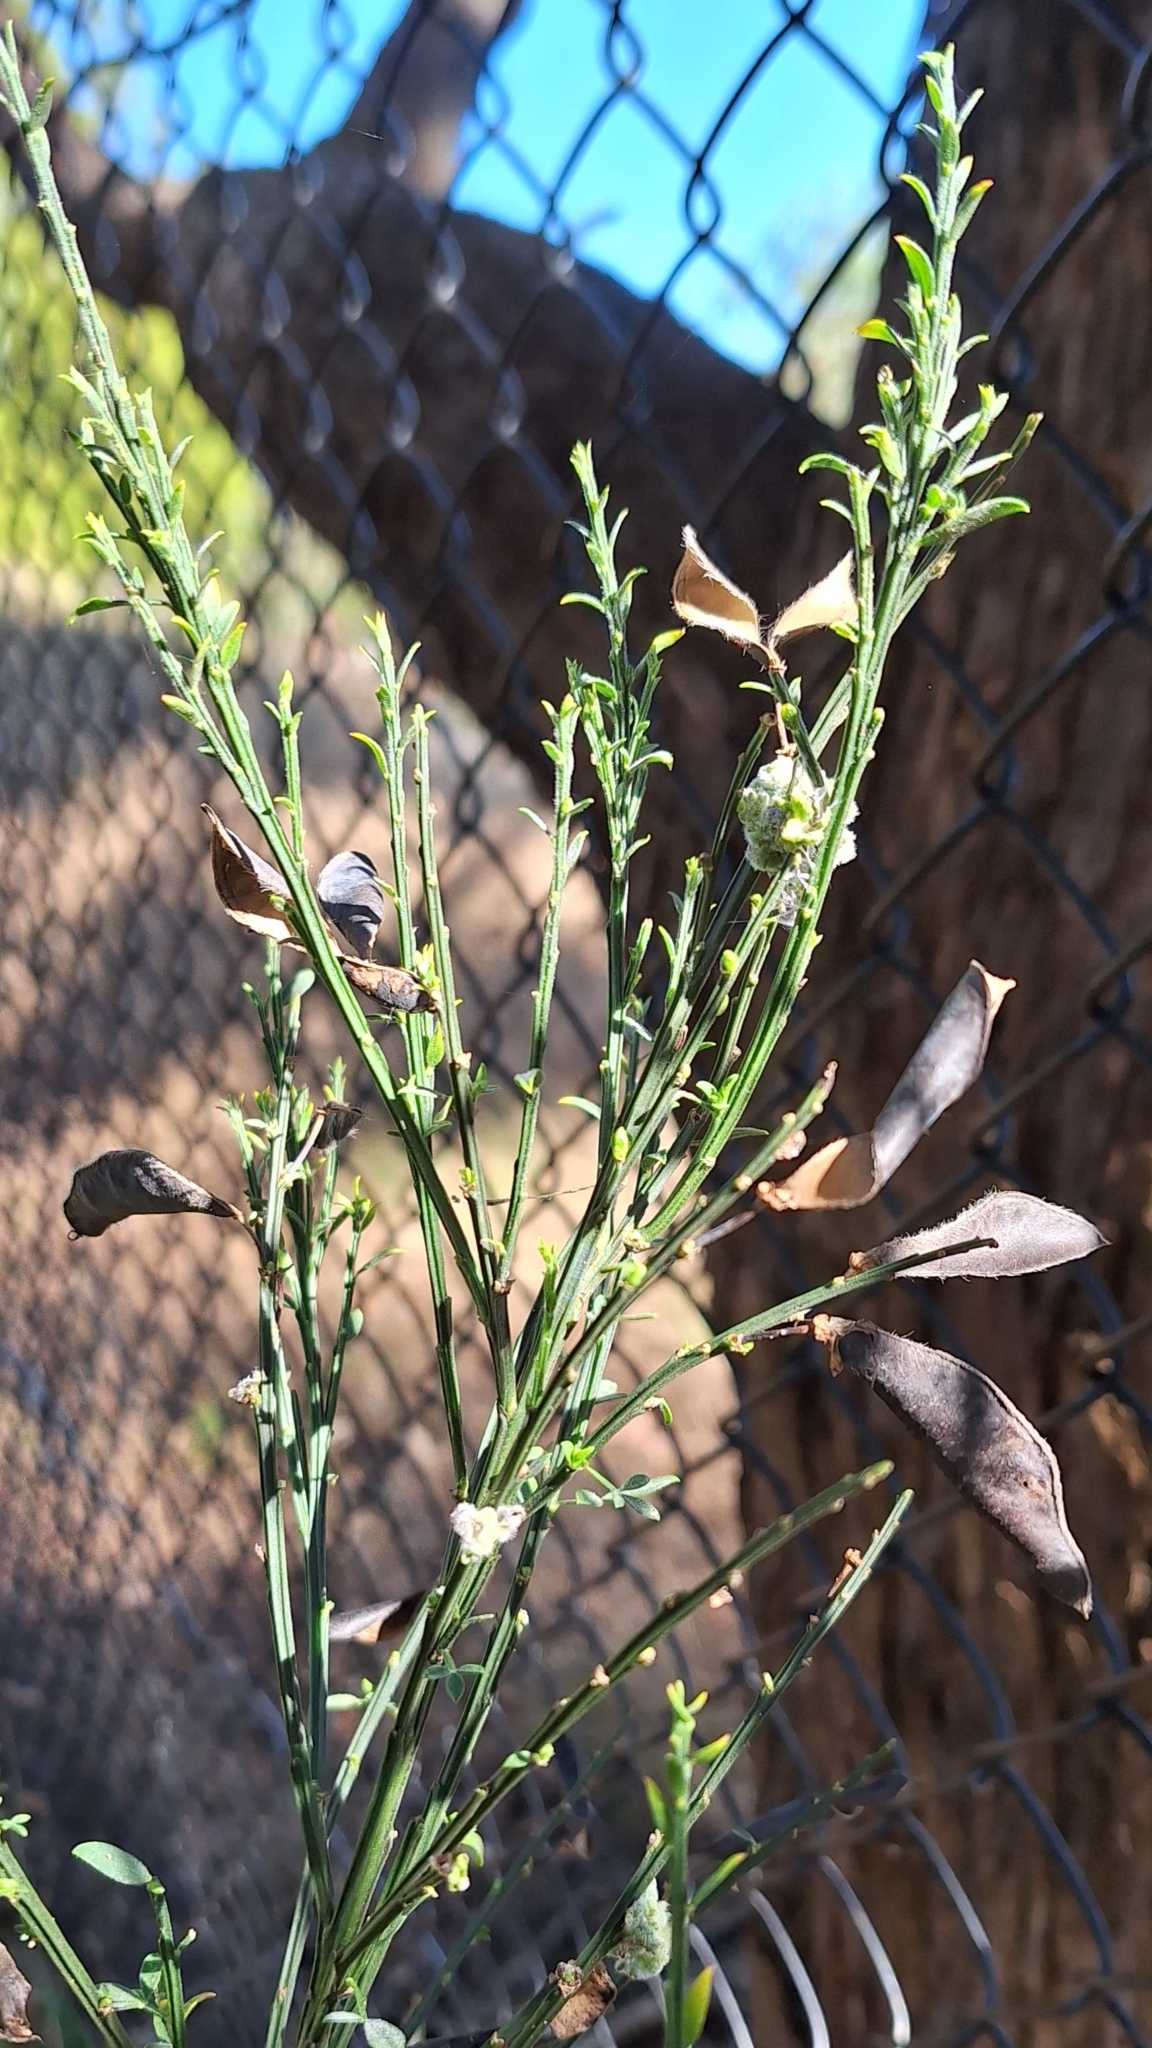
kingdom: Plantae
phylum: Tracheophyta
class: Magnoliopsida
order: Fabales
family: Fabaceae
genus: Cytisus
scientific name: Cytisus scoparius
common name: Scotch broom
